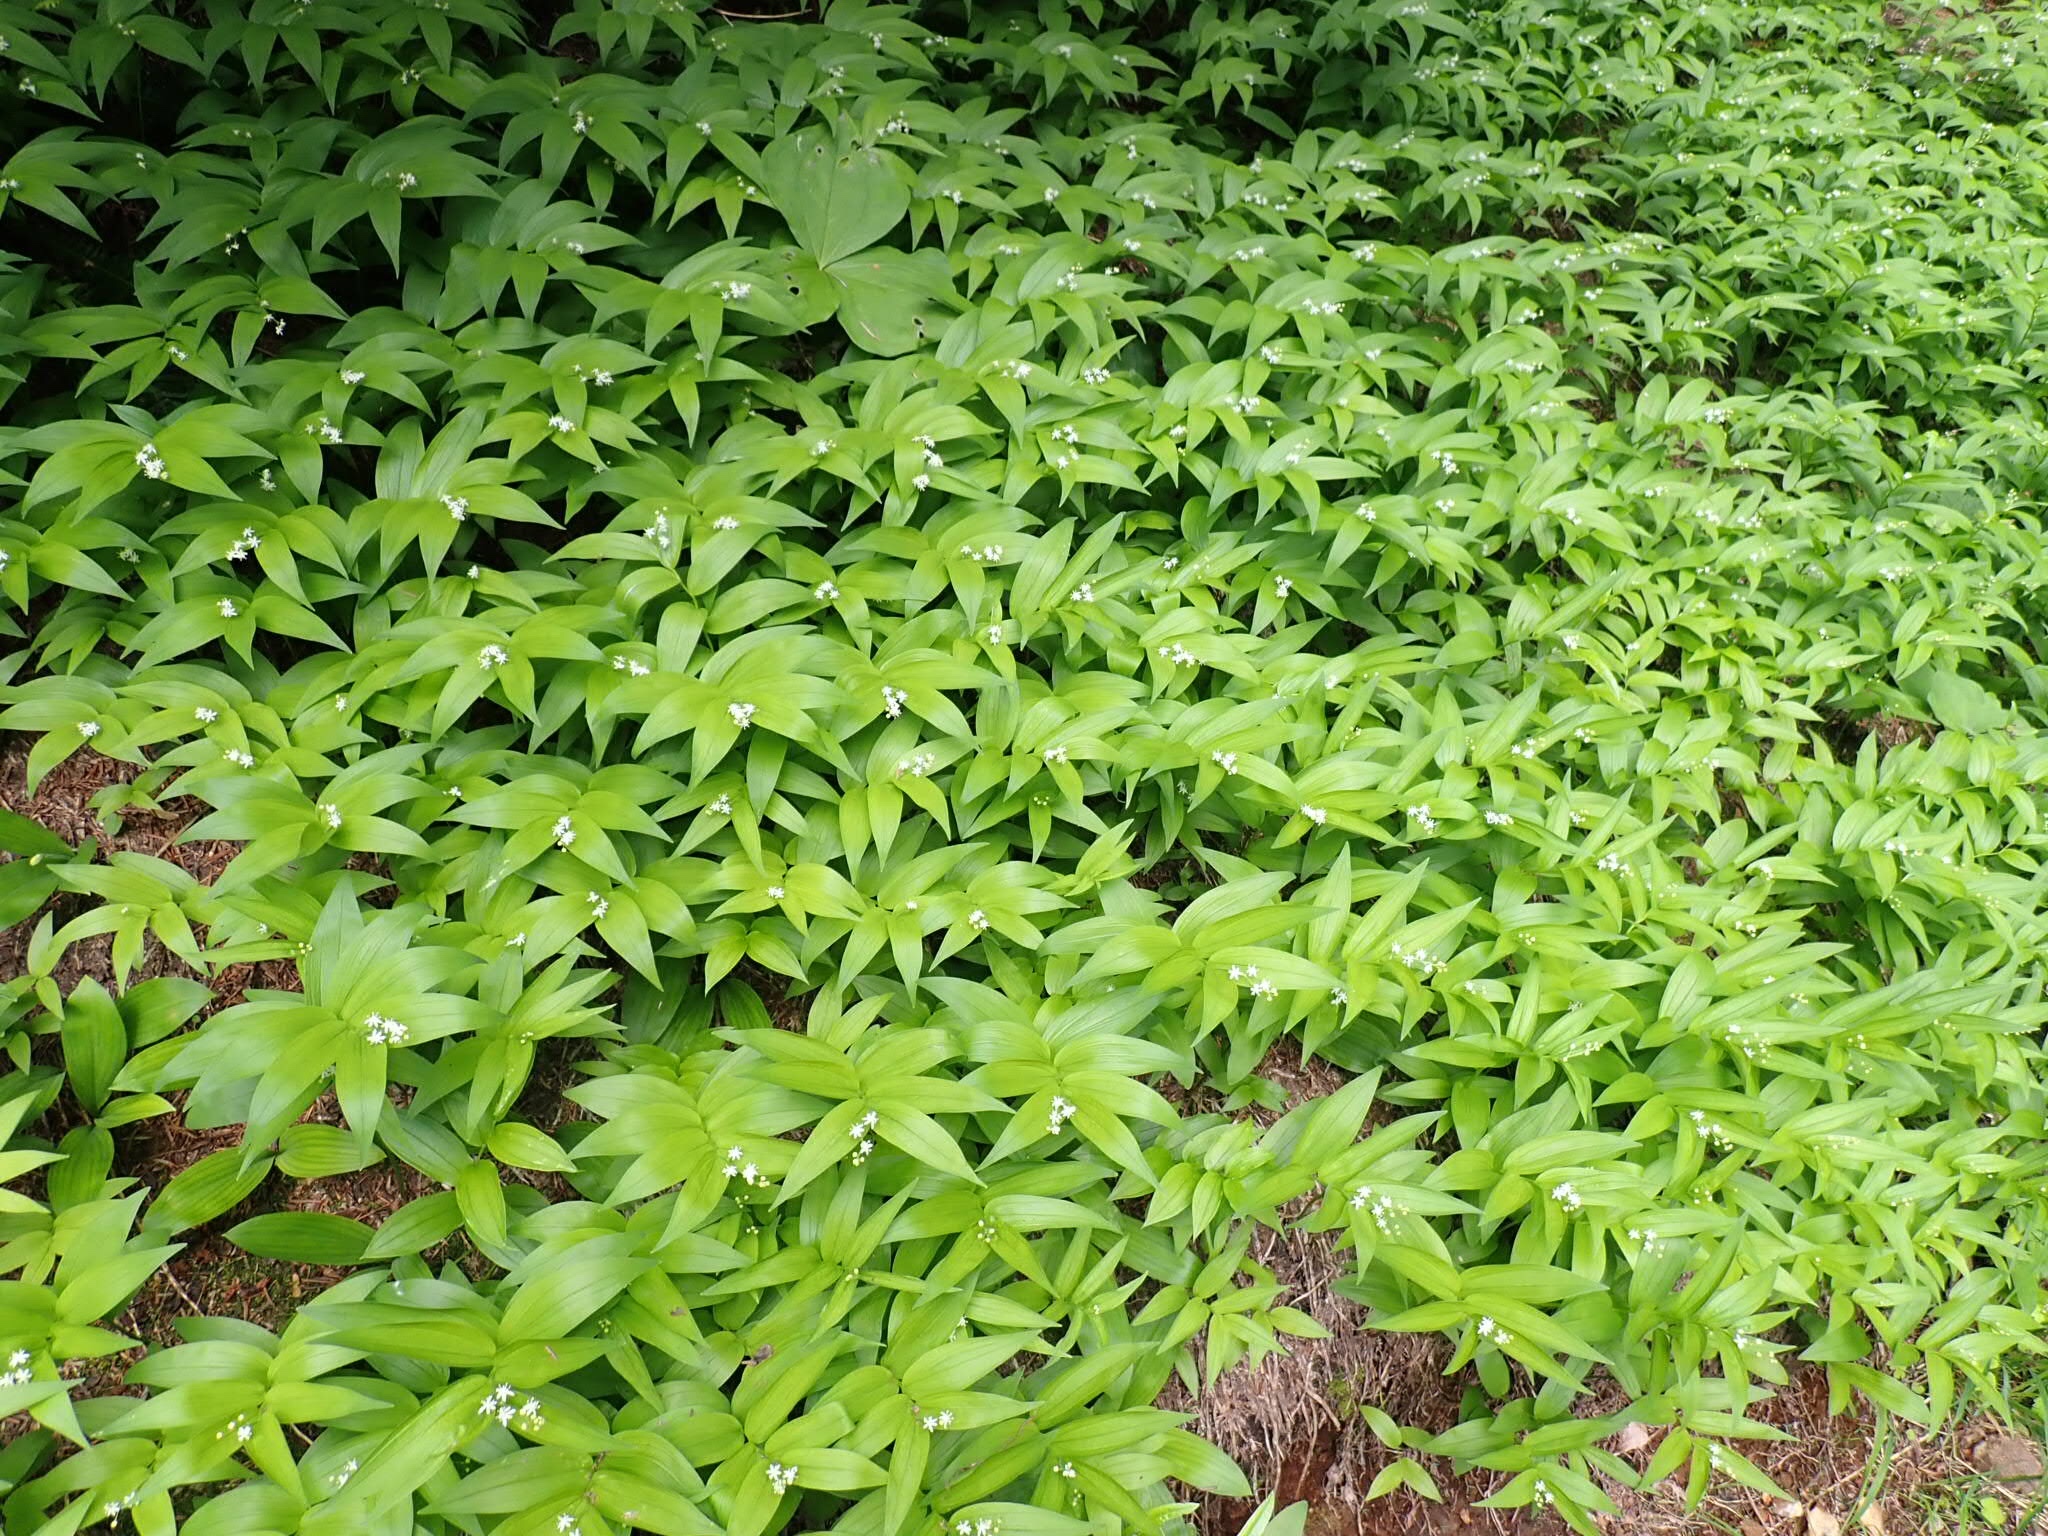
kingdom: Plantae
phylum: Tracheophyta
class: Liliopsida
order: Asparagales
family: Asparagaceae
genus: Maianthemum
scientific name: Maianthemum stellatum
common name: Little false solomon's seal
